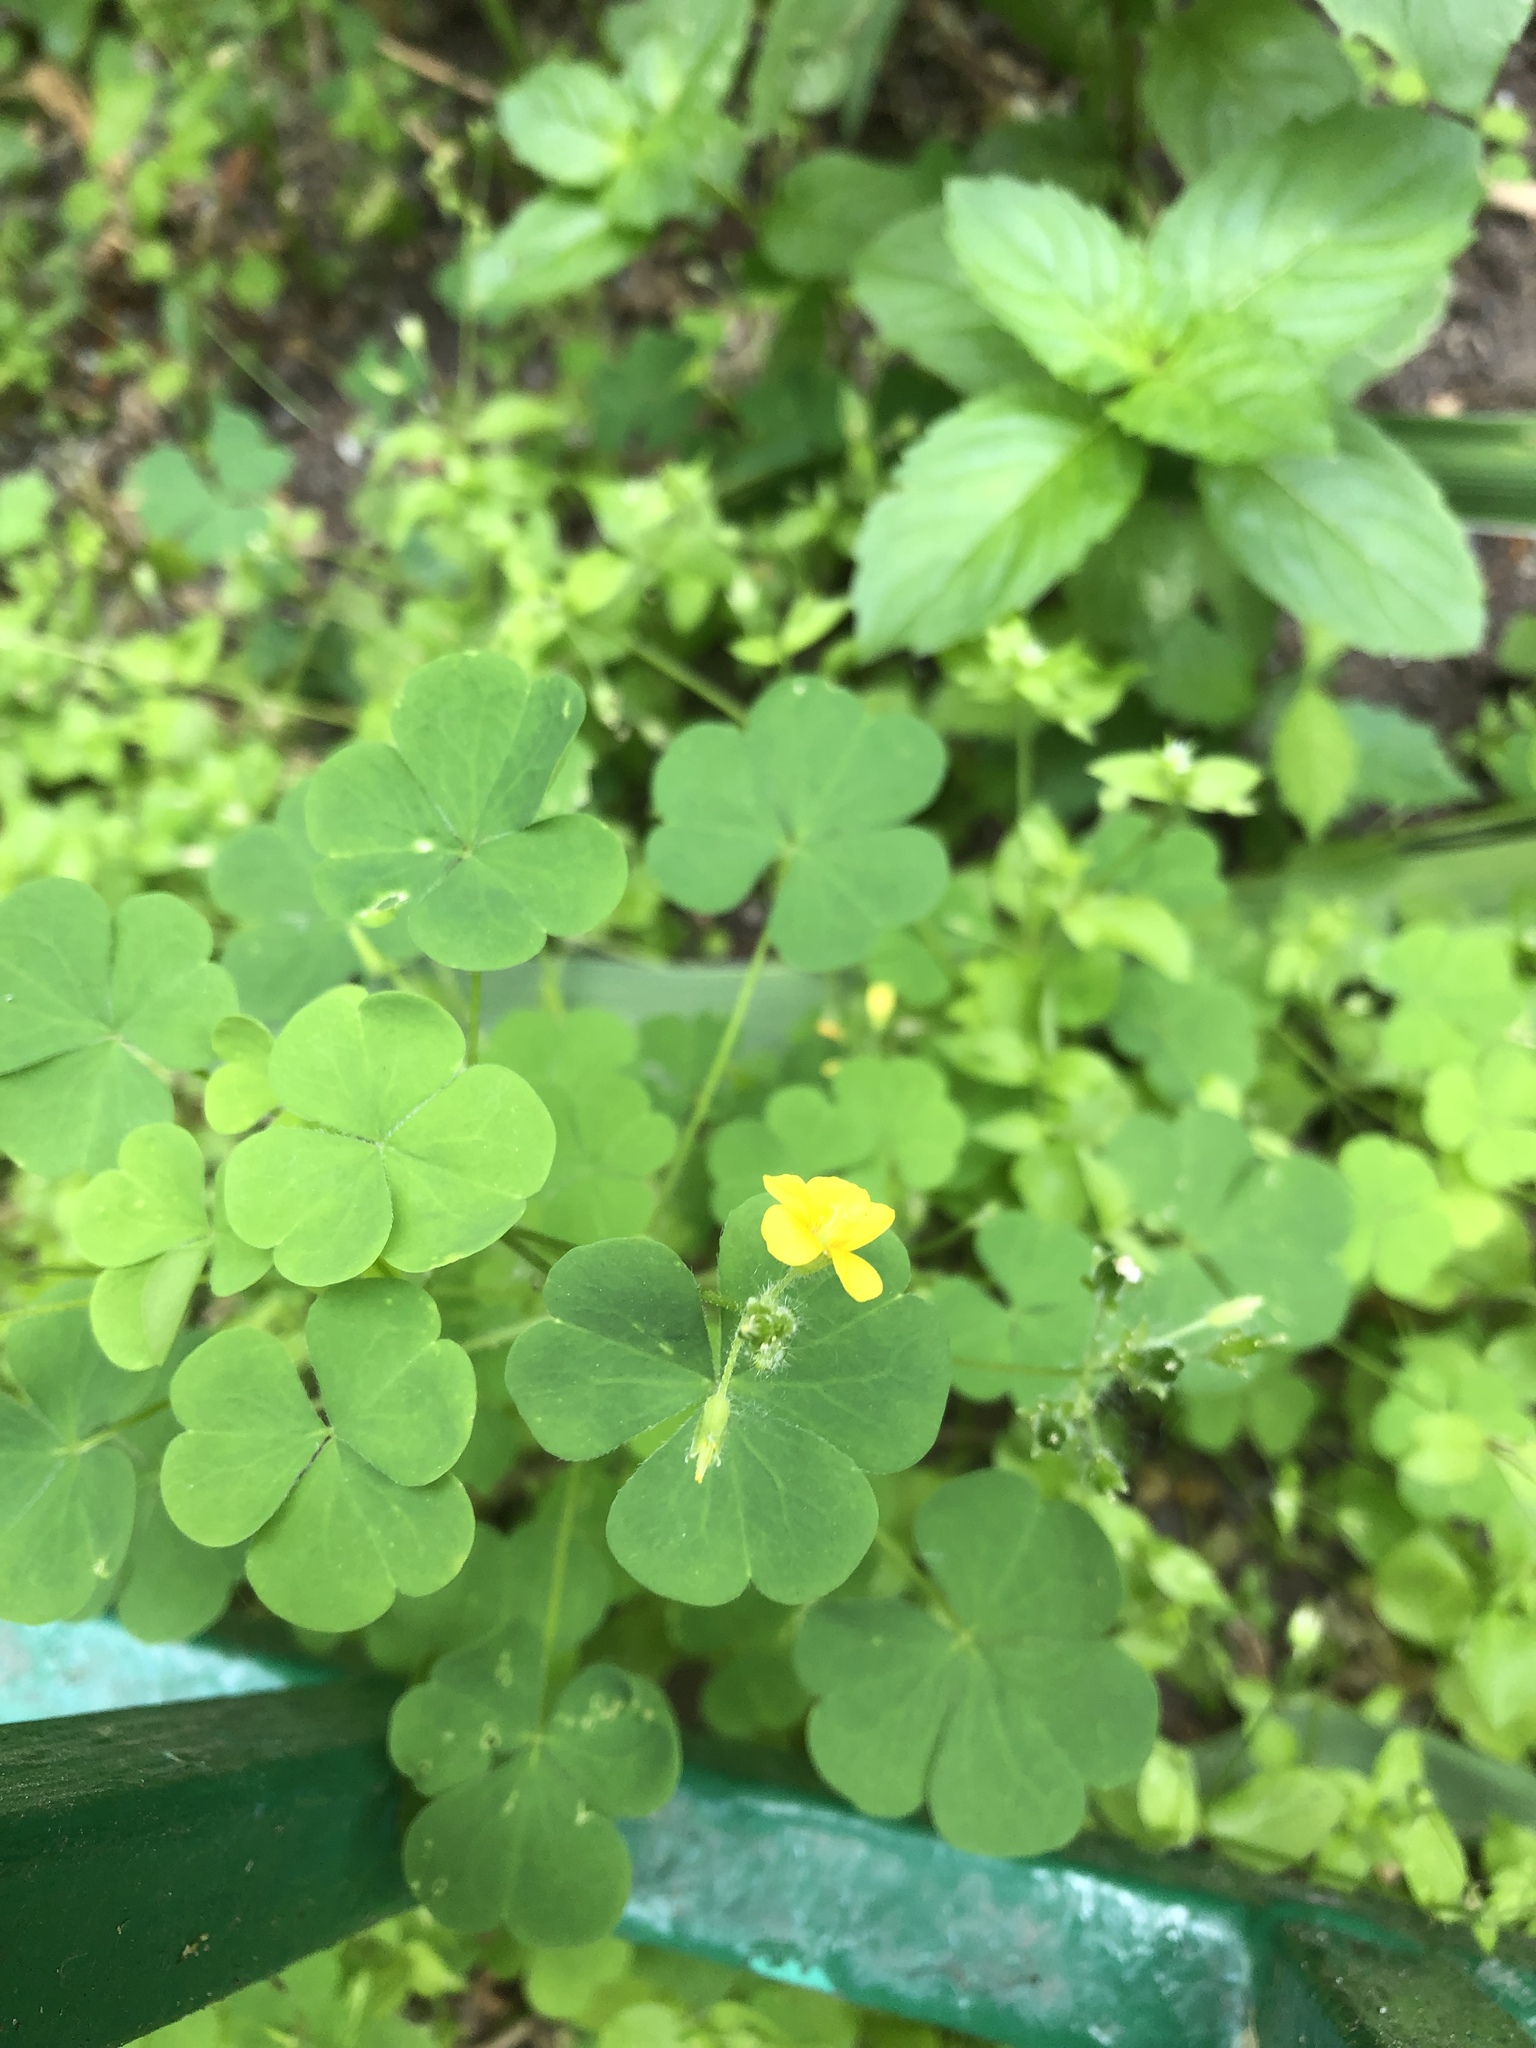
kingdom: Plantae
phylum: Tracheophyta
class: Magnoliopsida
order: Oxalidales
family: Oxalidaceae
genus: Oxalis
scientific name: Oxalis stricta
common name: Upright yellow-sorrel
